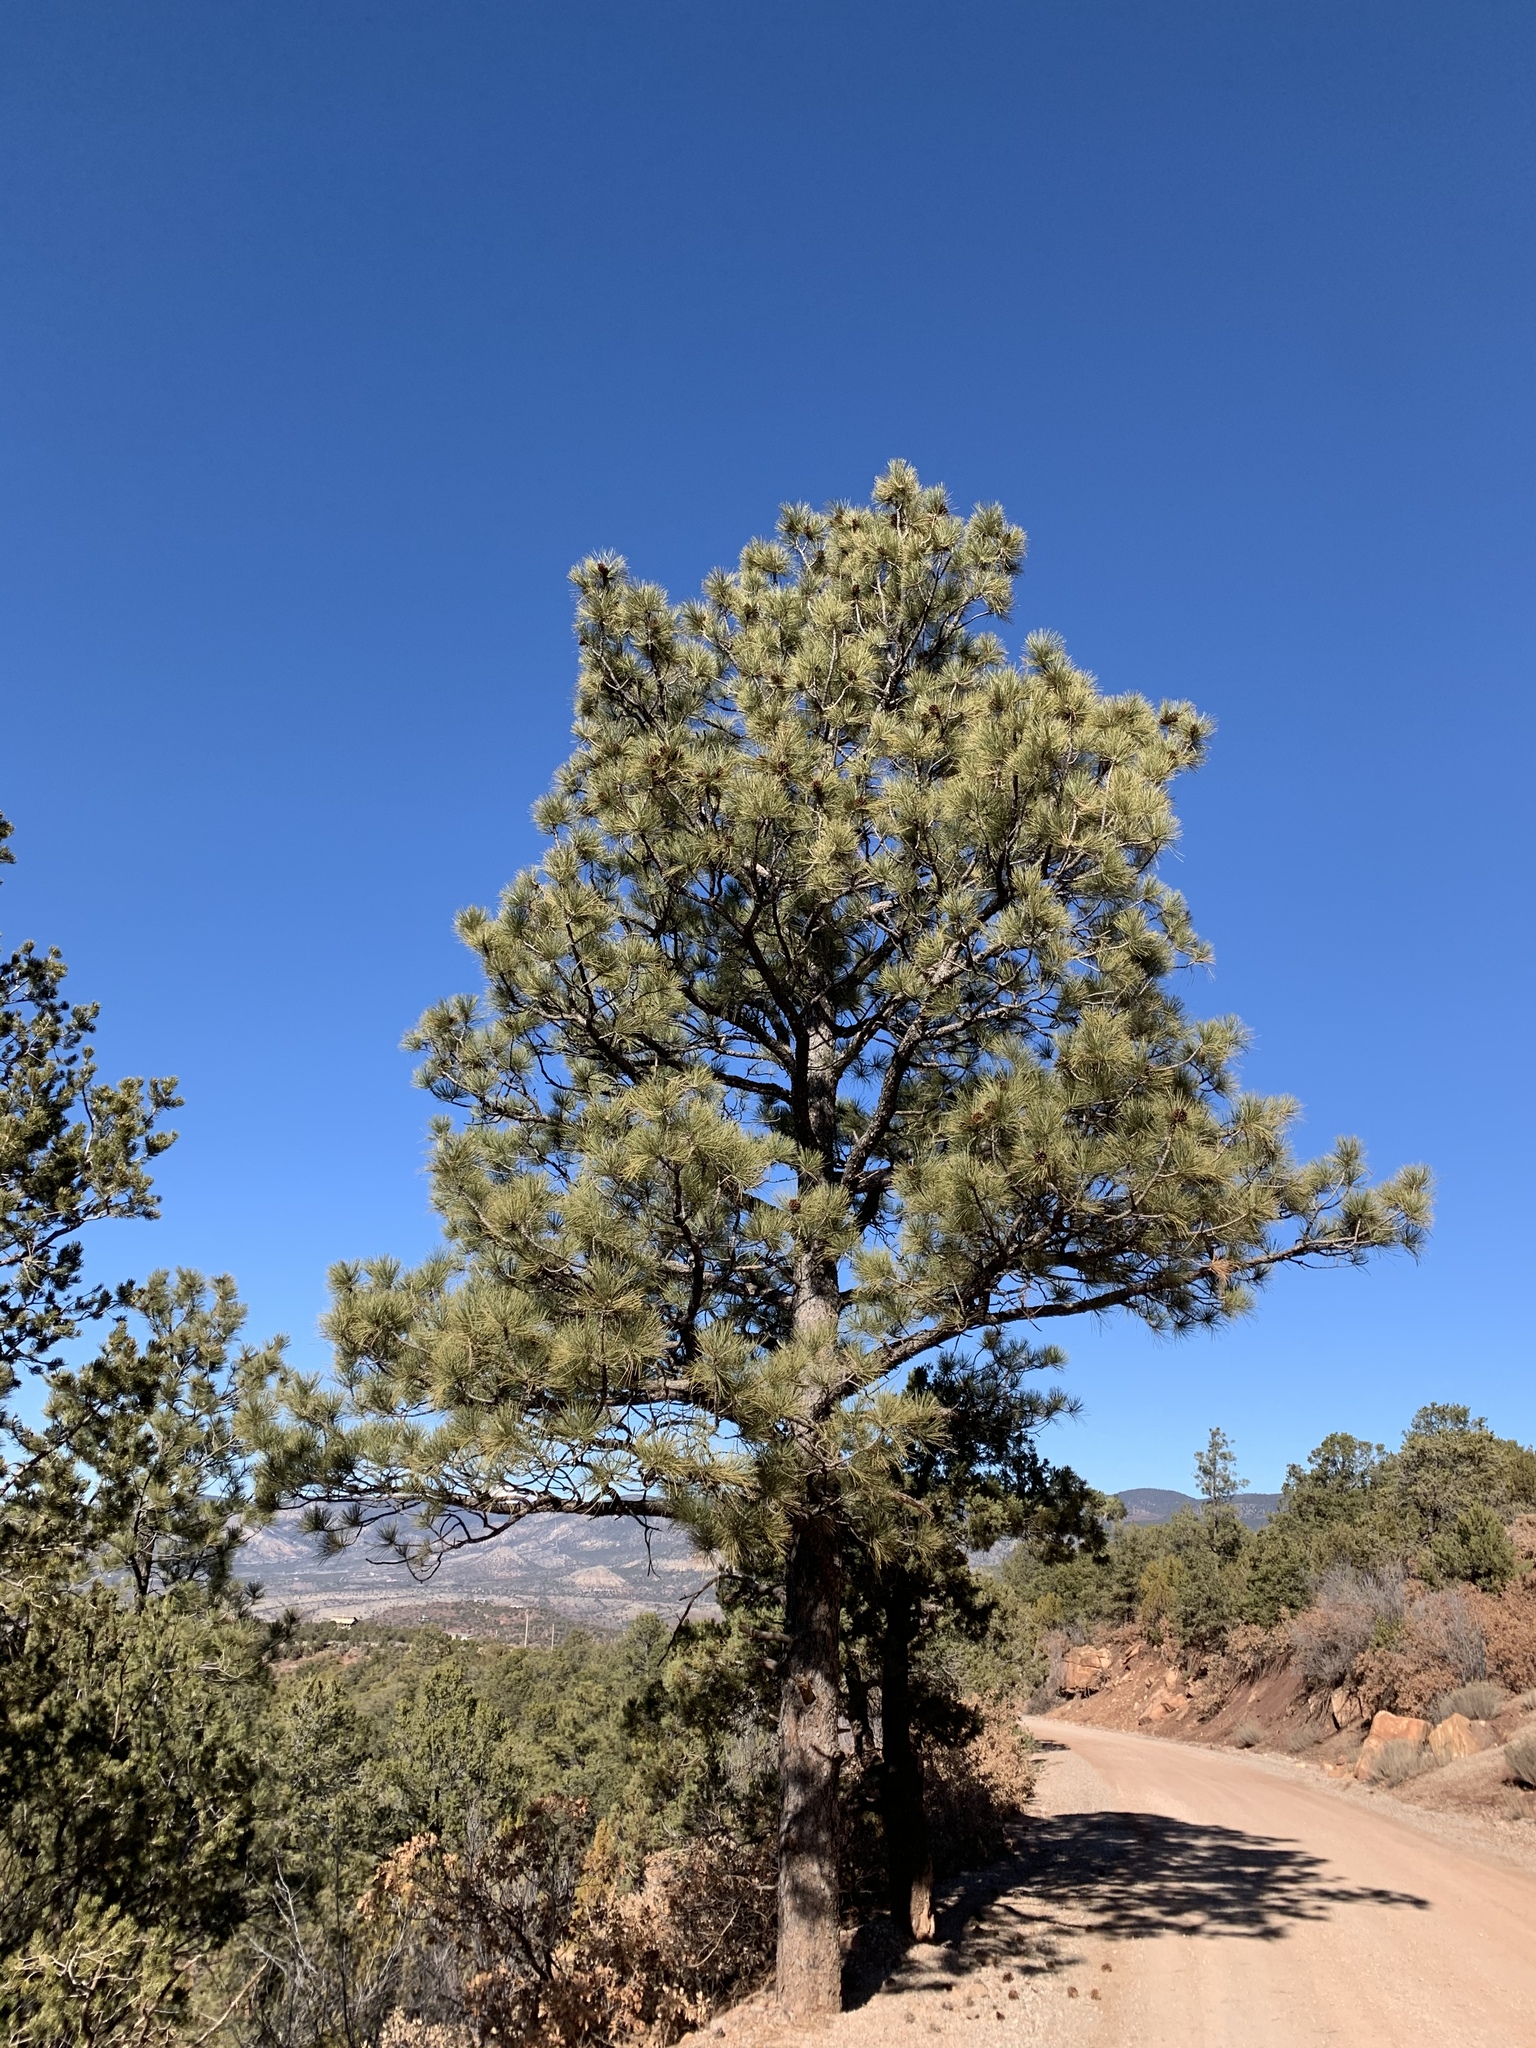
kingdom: Plantae
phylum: Tracheophyta
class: Pinopsida
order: Pinales
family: Pinaceae
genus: Pinus
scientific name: Pinus ponderosa
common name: Western yellow-pine
